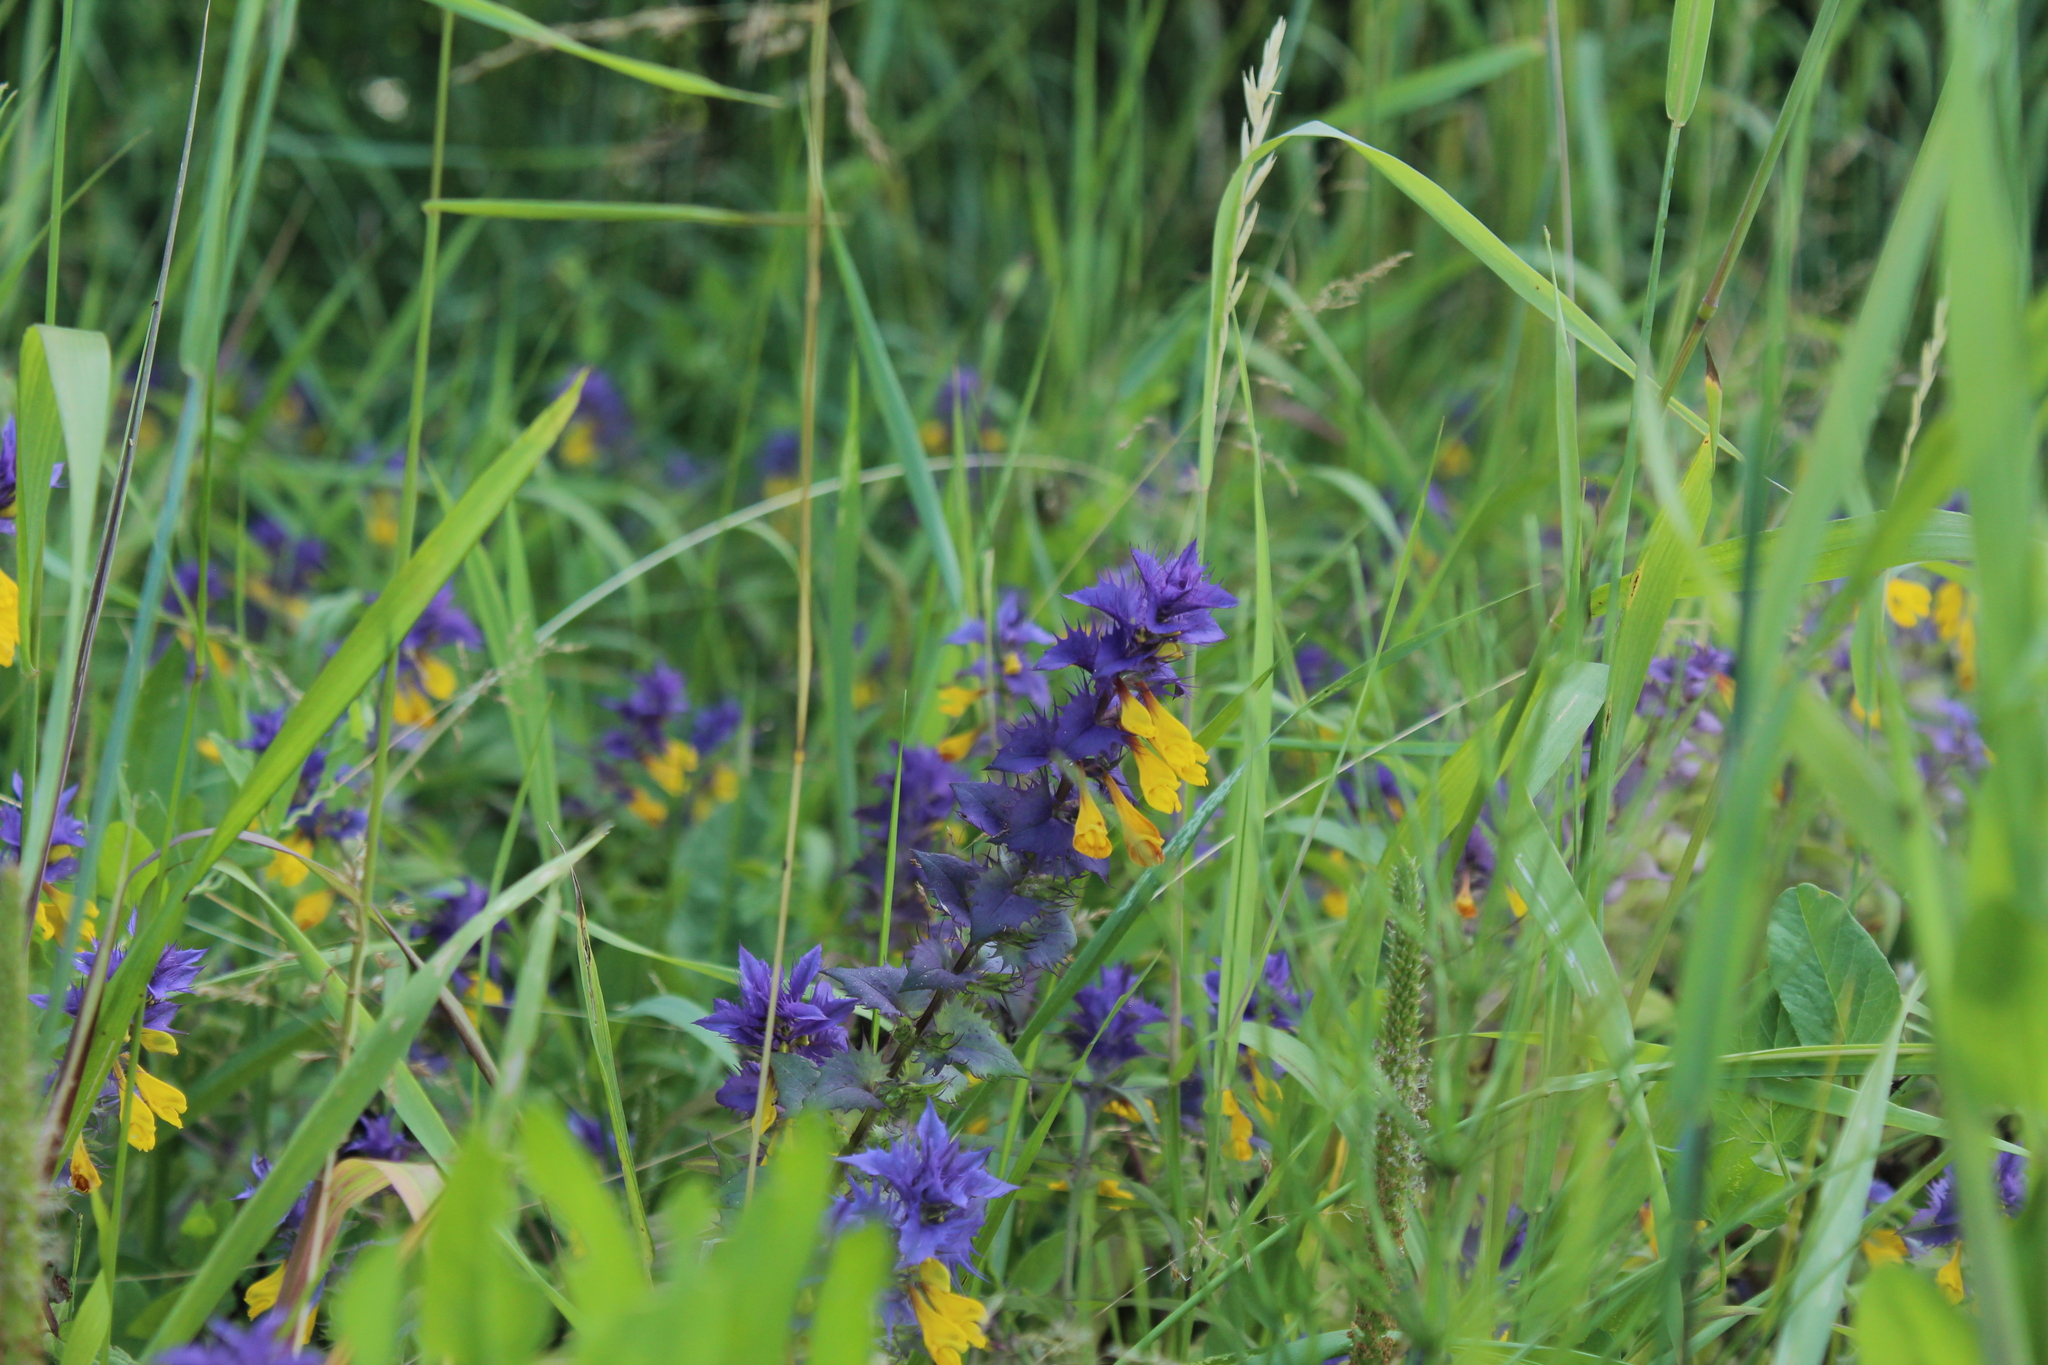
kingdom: Plantae
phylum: Tracheophyta
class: Magnoliopsida
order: Lamiales
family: Orobanchaceae
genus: Melampyrum
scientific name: Melampyrum nemorosum
